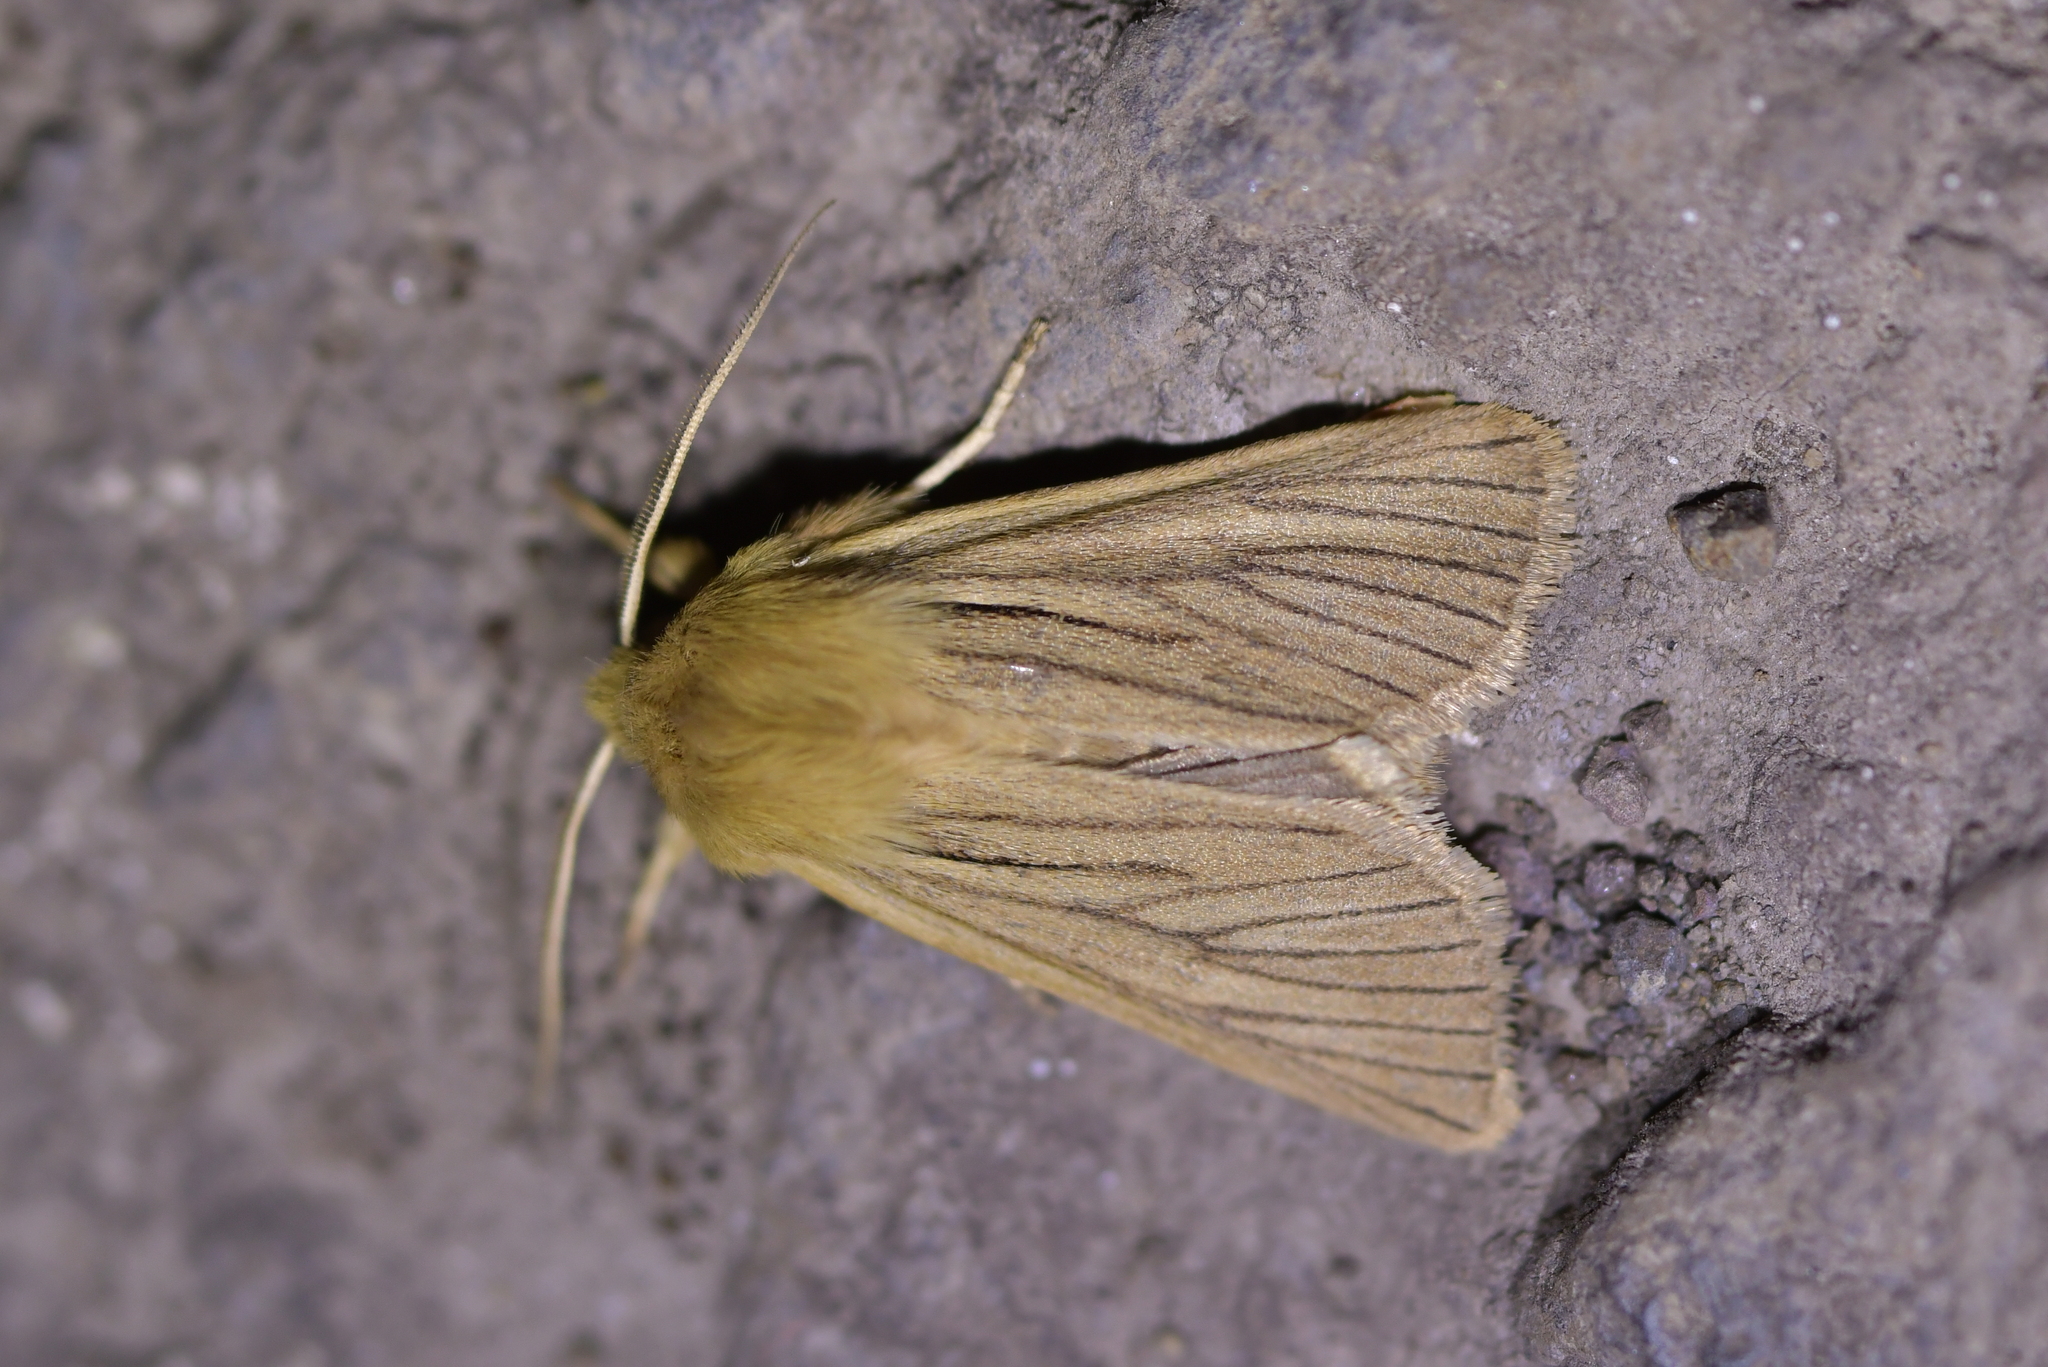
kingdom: Animalia
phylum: Arthropoda
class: Insecta
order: Lepidoptera
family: Noctuidae
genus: Ichneutica
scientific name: Ichneutica
